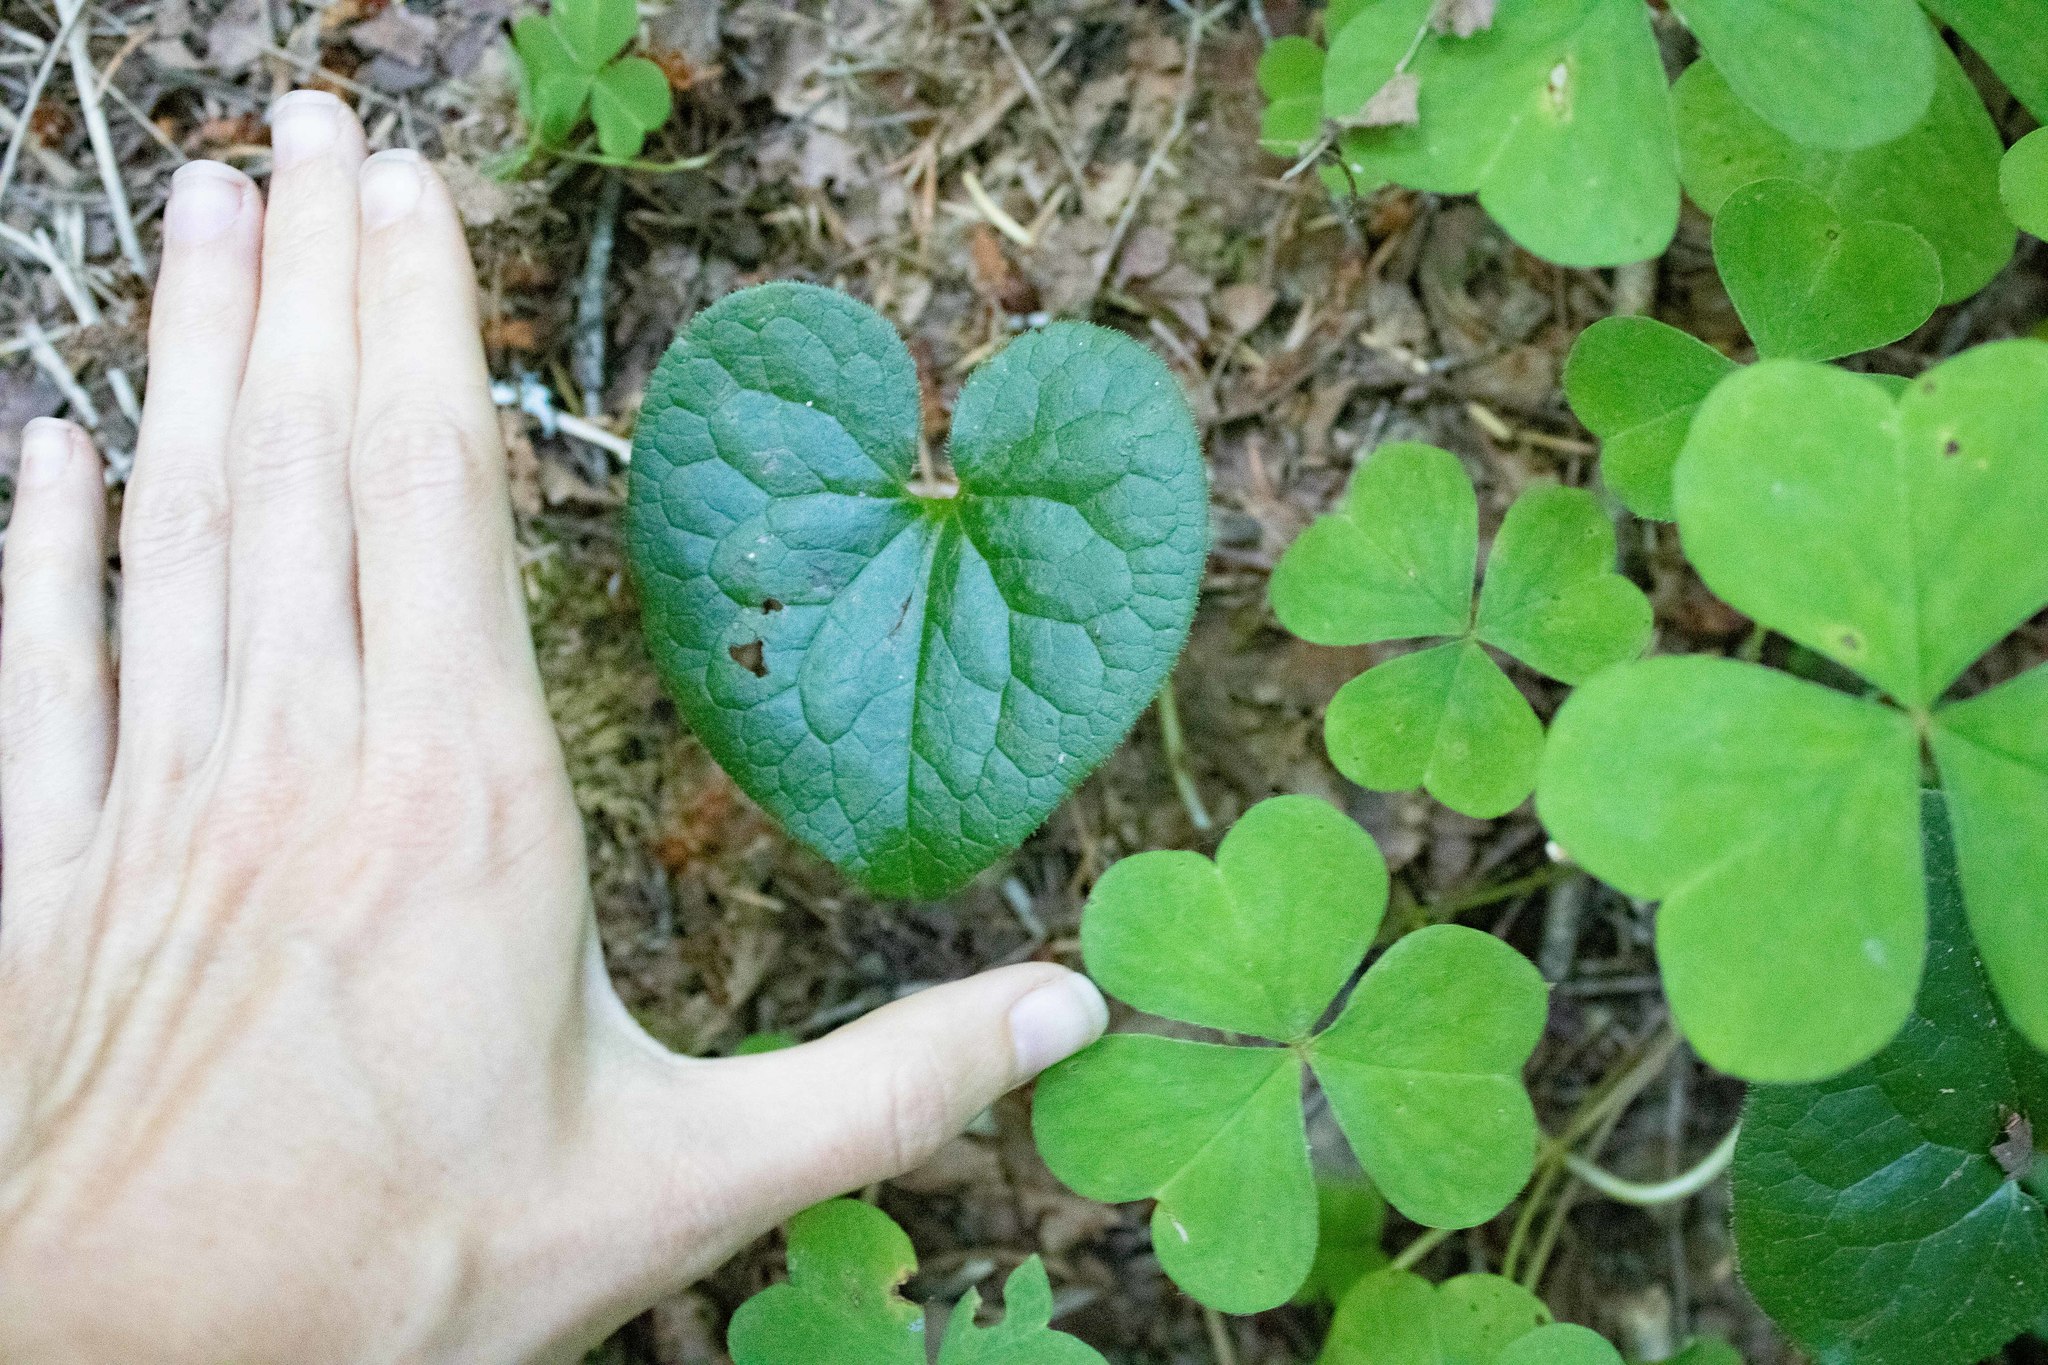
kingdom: Plantae
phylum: Tracheophyta
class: Magnoliopsida
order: Piperales
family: Aristolochiaceae
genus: Asarum
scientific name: Asarum caudatum
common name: Wild ginger
